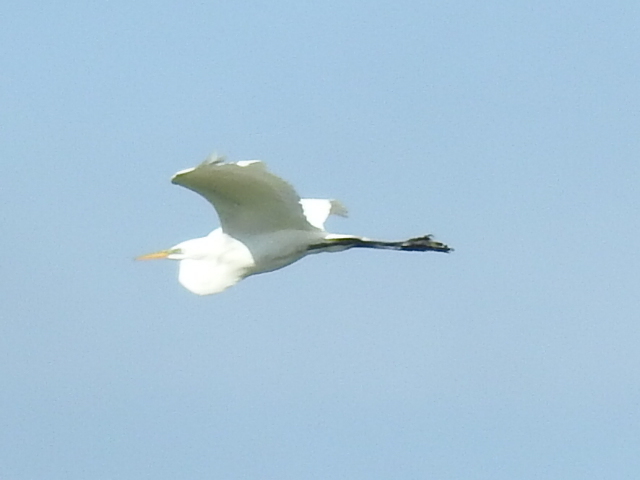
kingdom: Animalia
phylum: Chordata
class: Aves
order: Pelecaniformes
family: Ardeidae
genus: Ardea
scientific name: Ardea alba
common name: Great egret
